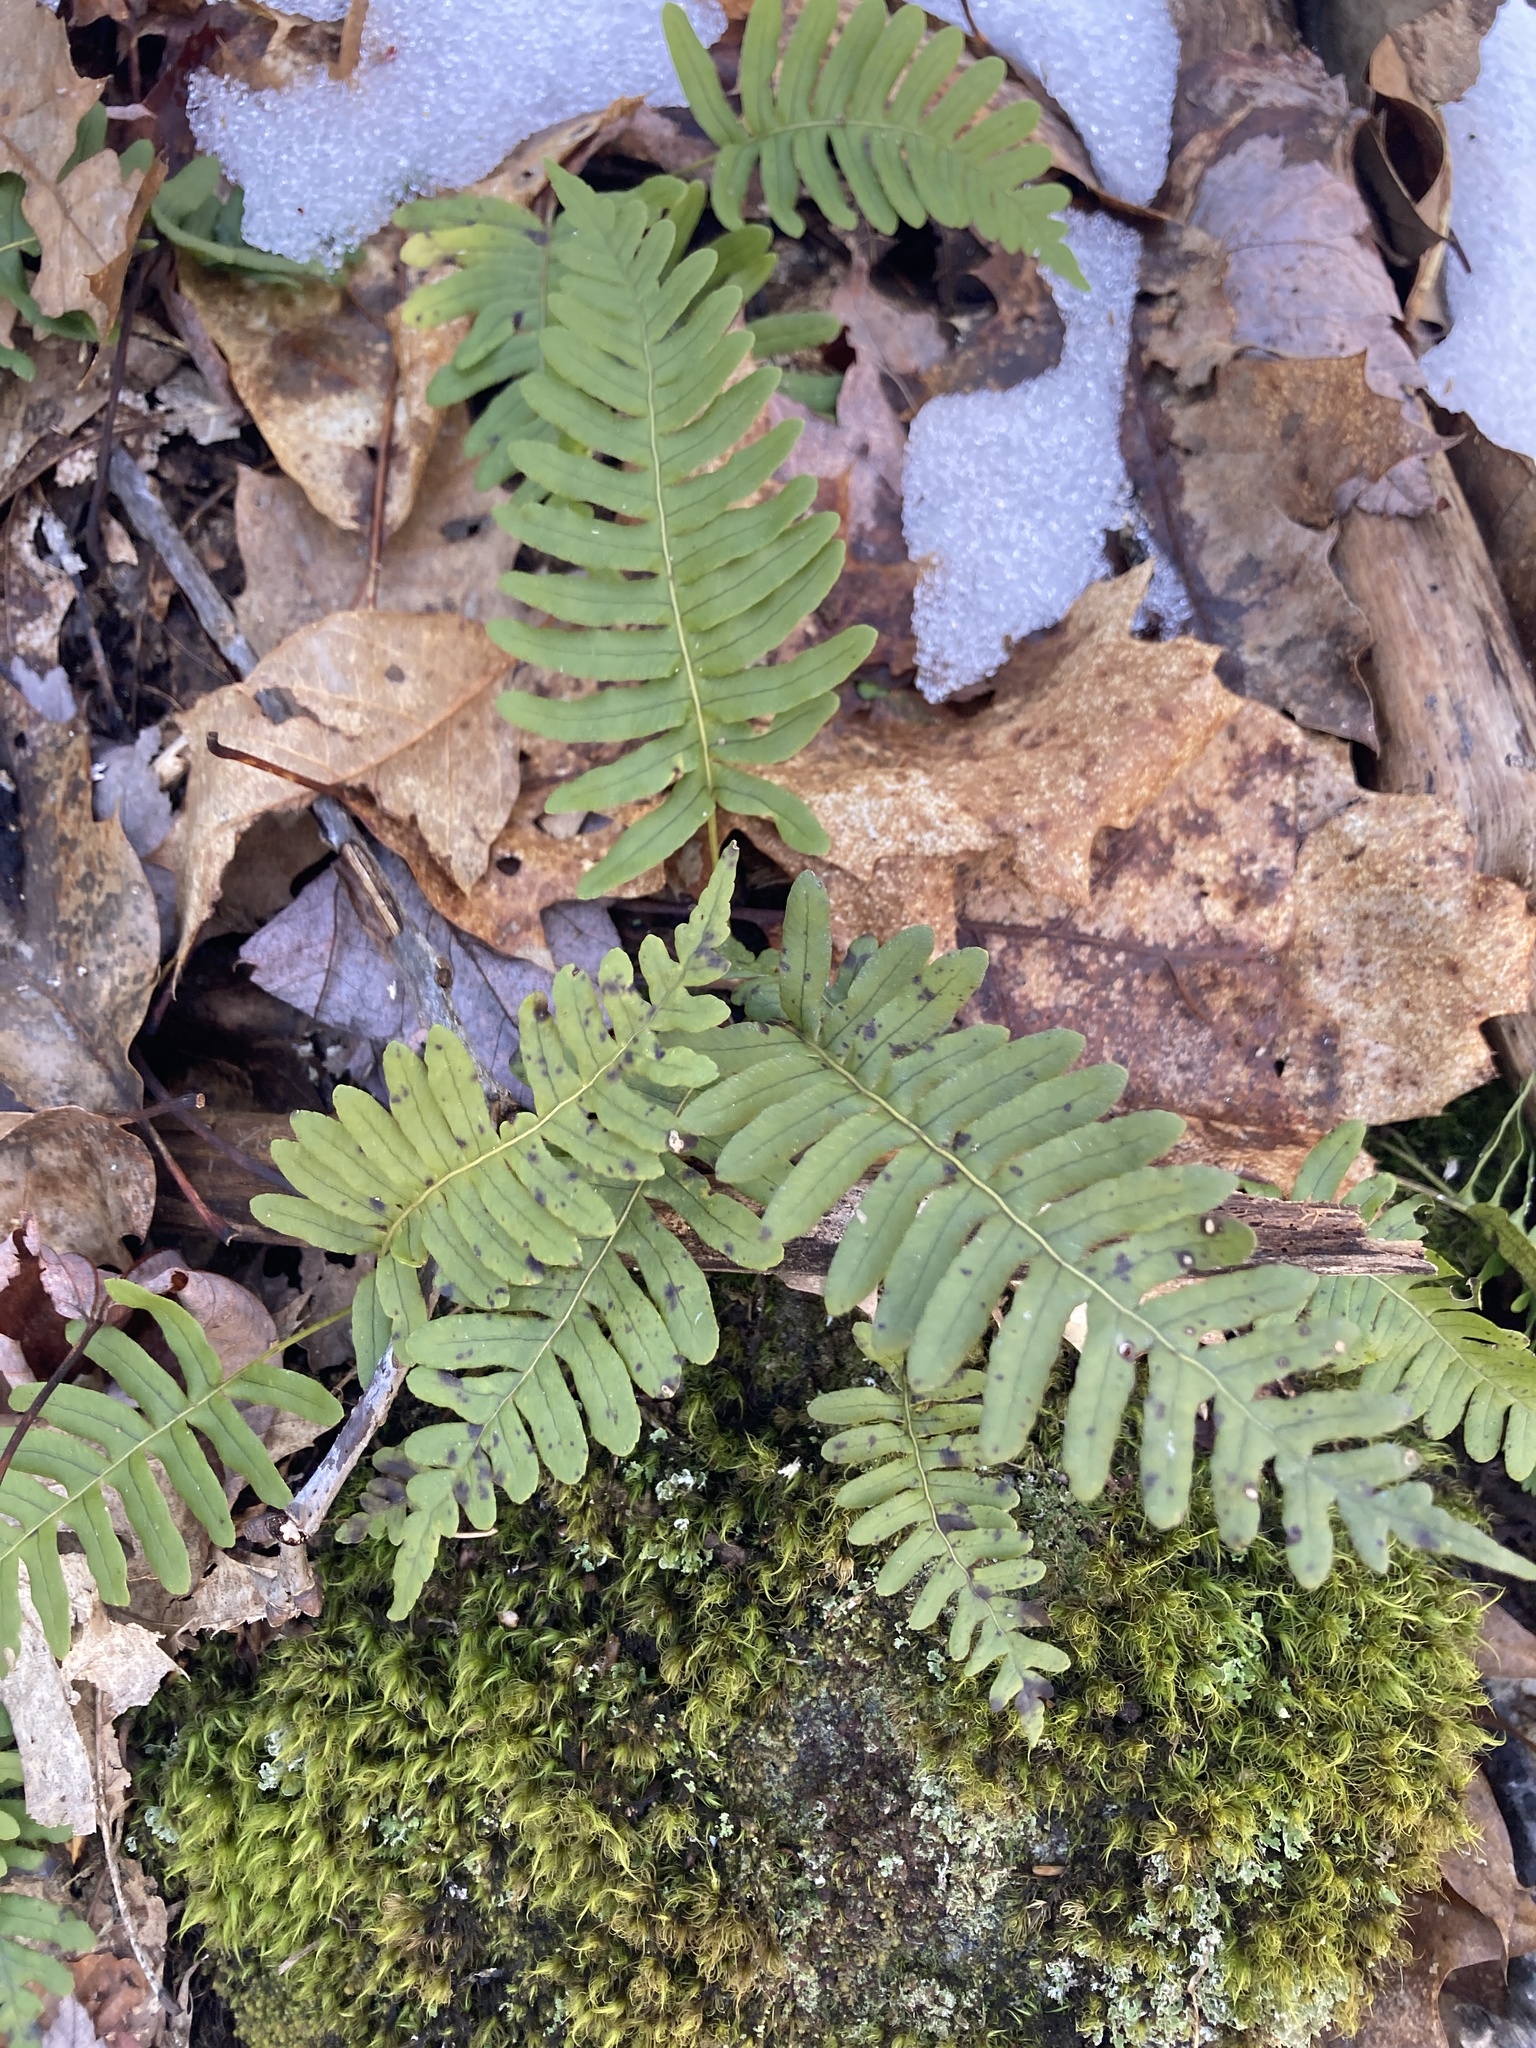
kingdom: Plantae
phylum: Tracheophyta
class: Polypodiopsida
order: Polypodiales
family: Polypodiaceae
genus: Polypodium
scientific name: Polypodium virginianum
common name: American wall fern
